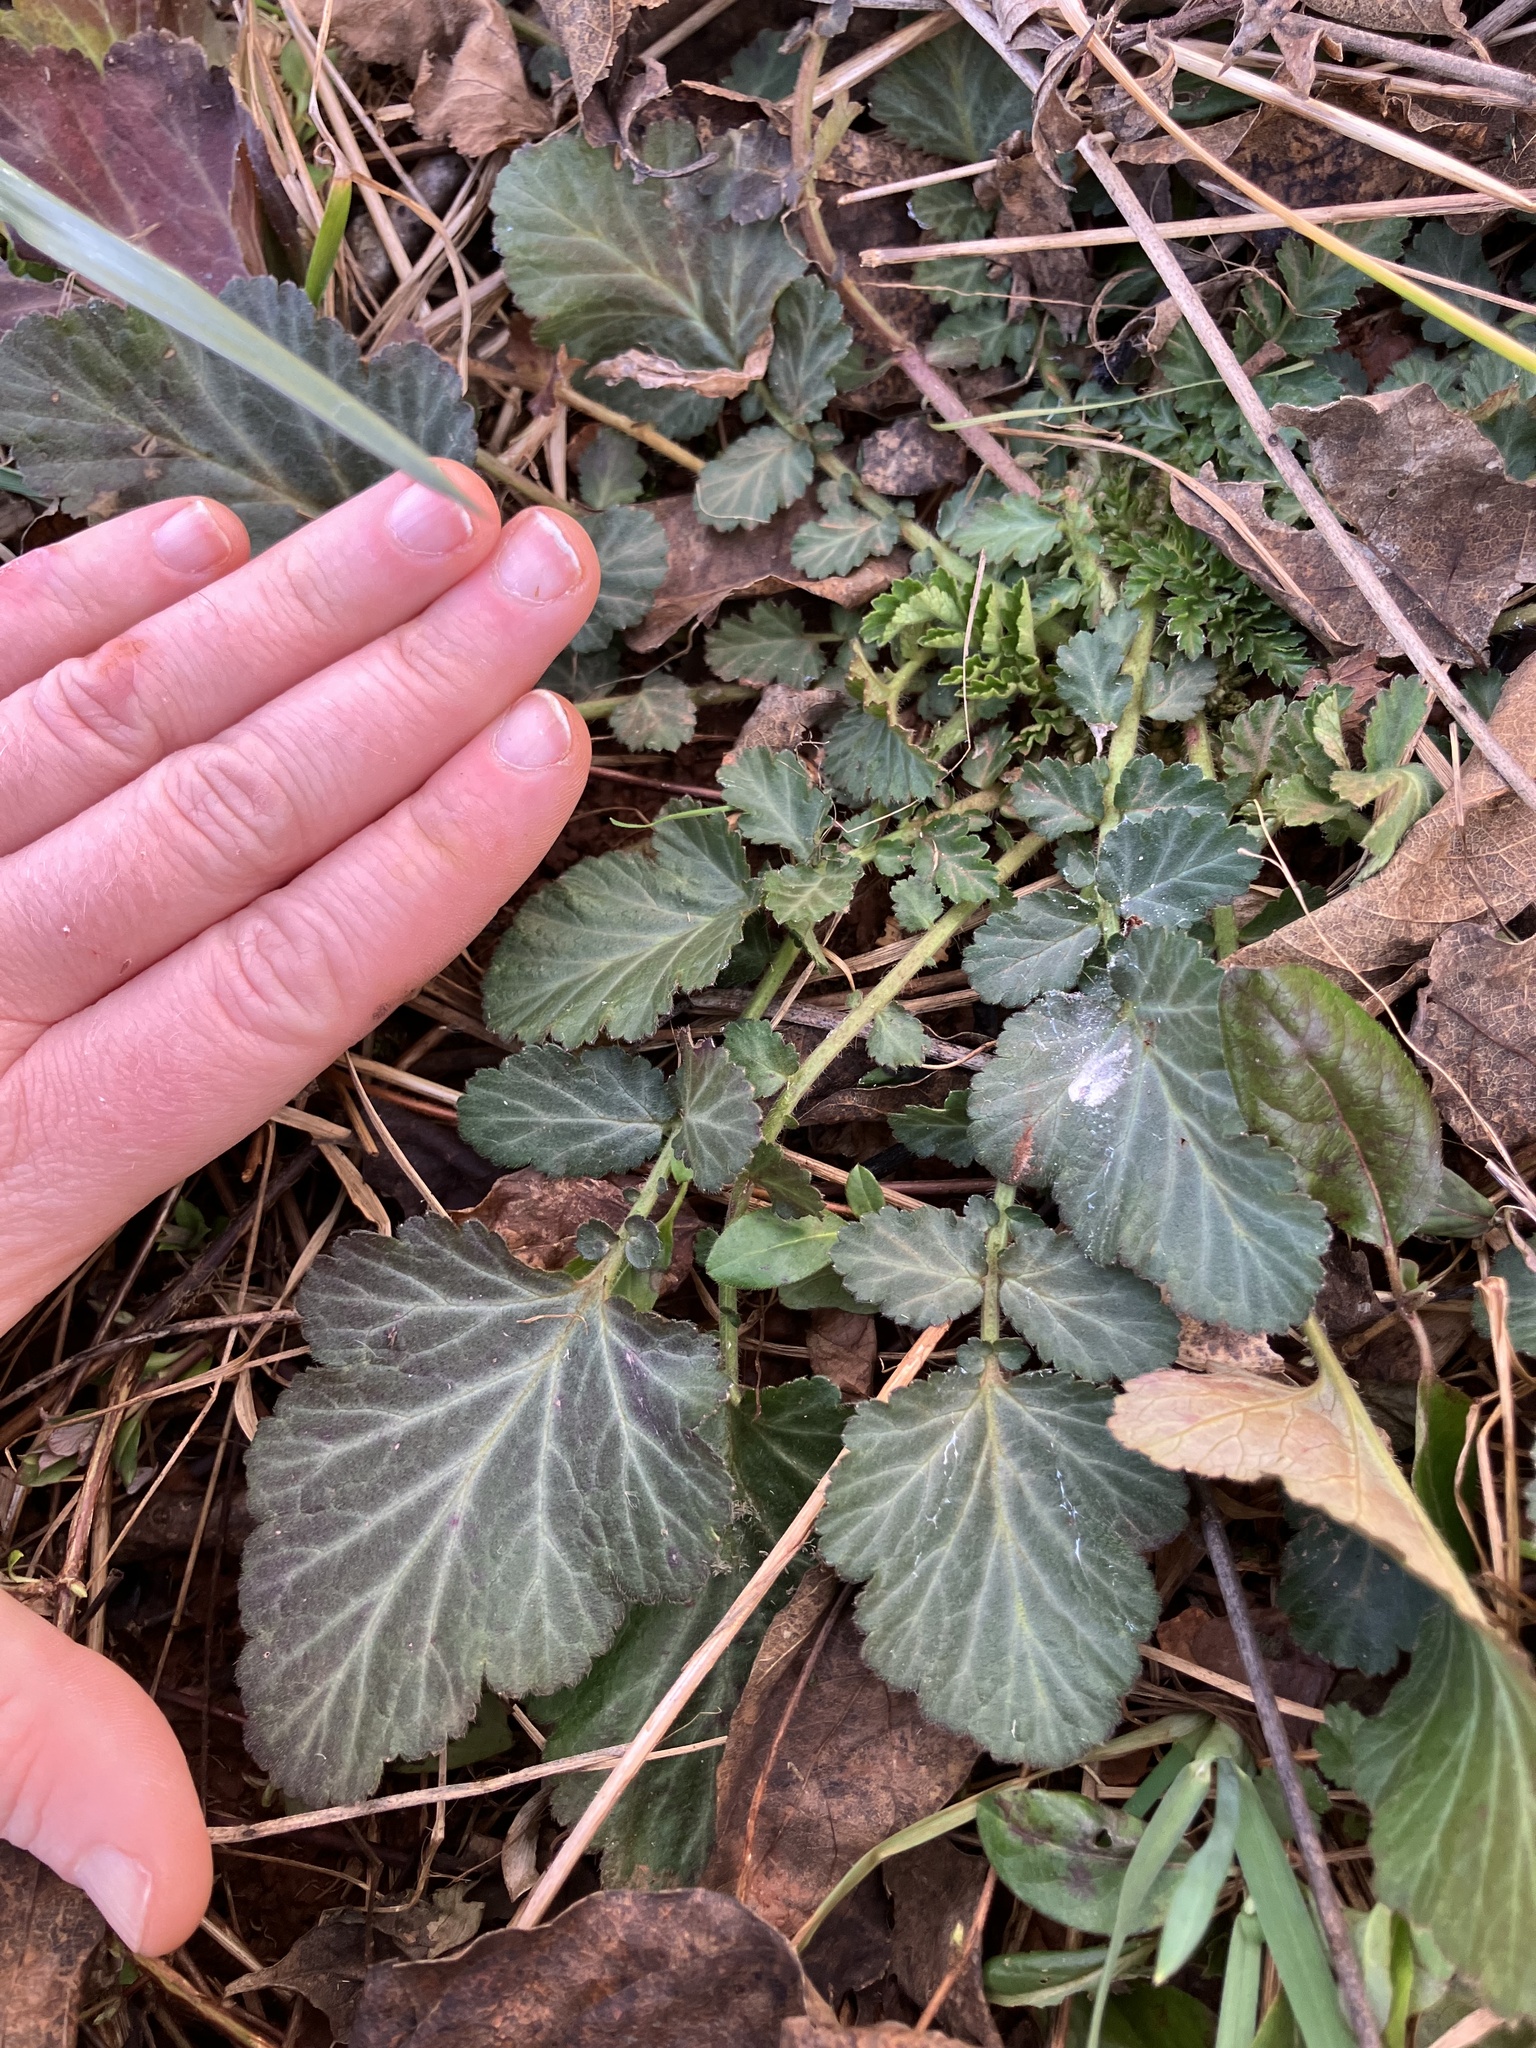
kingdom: Plantae
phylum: Tracheophyta
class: Magnoliopsida
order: Rosales
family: Rosaceae
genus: Geum
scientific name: Geum canadense
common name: White avens
